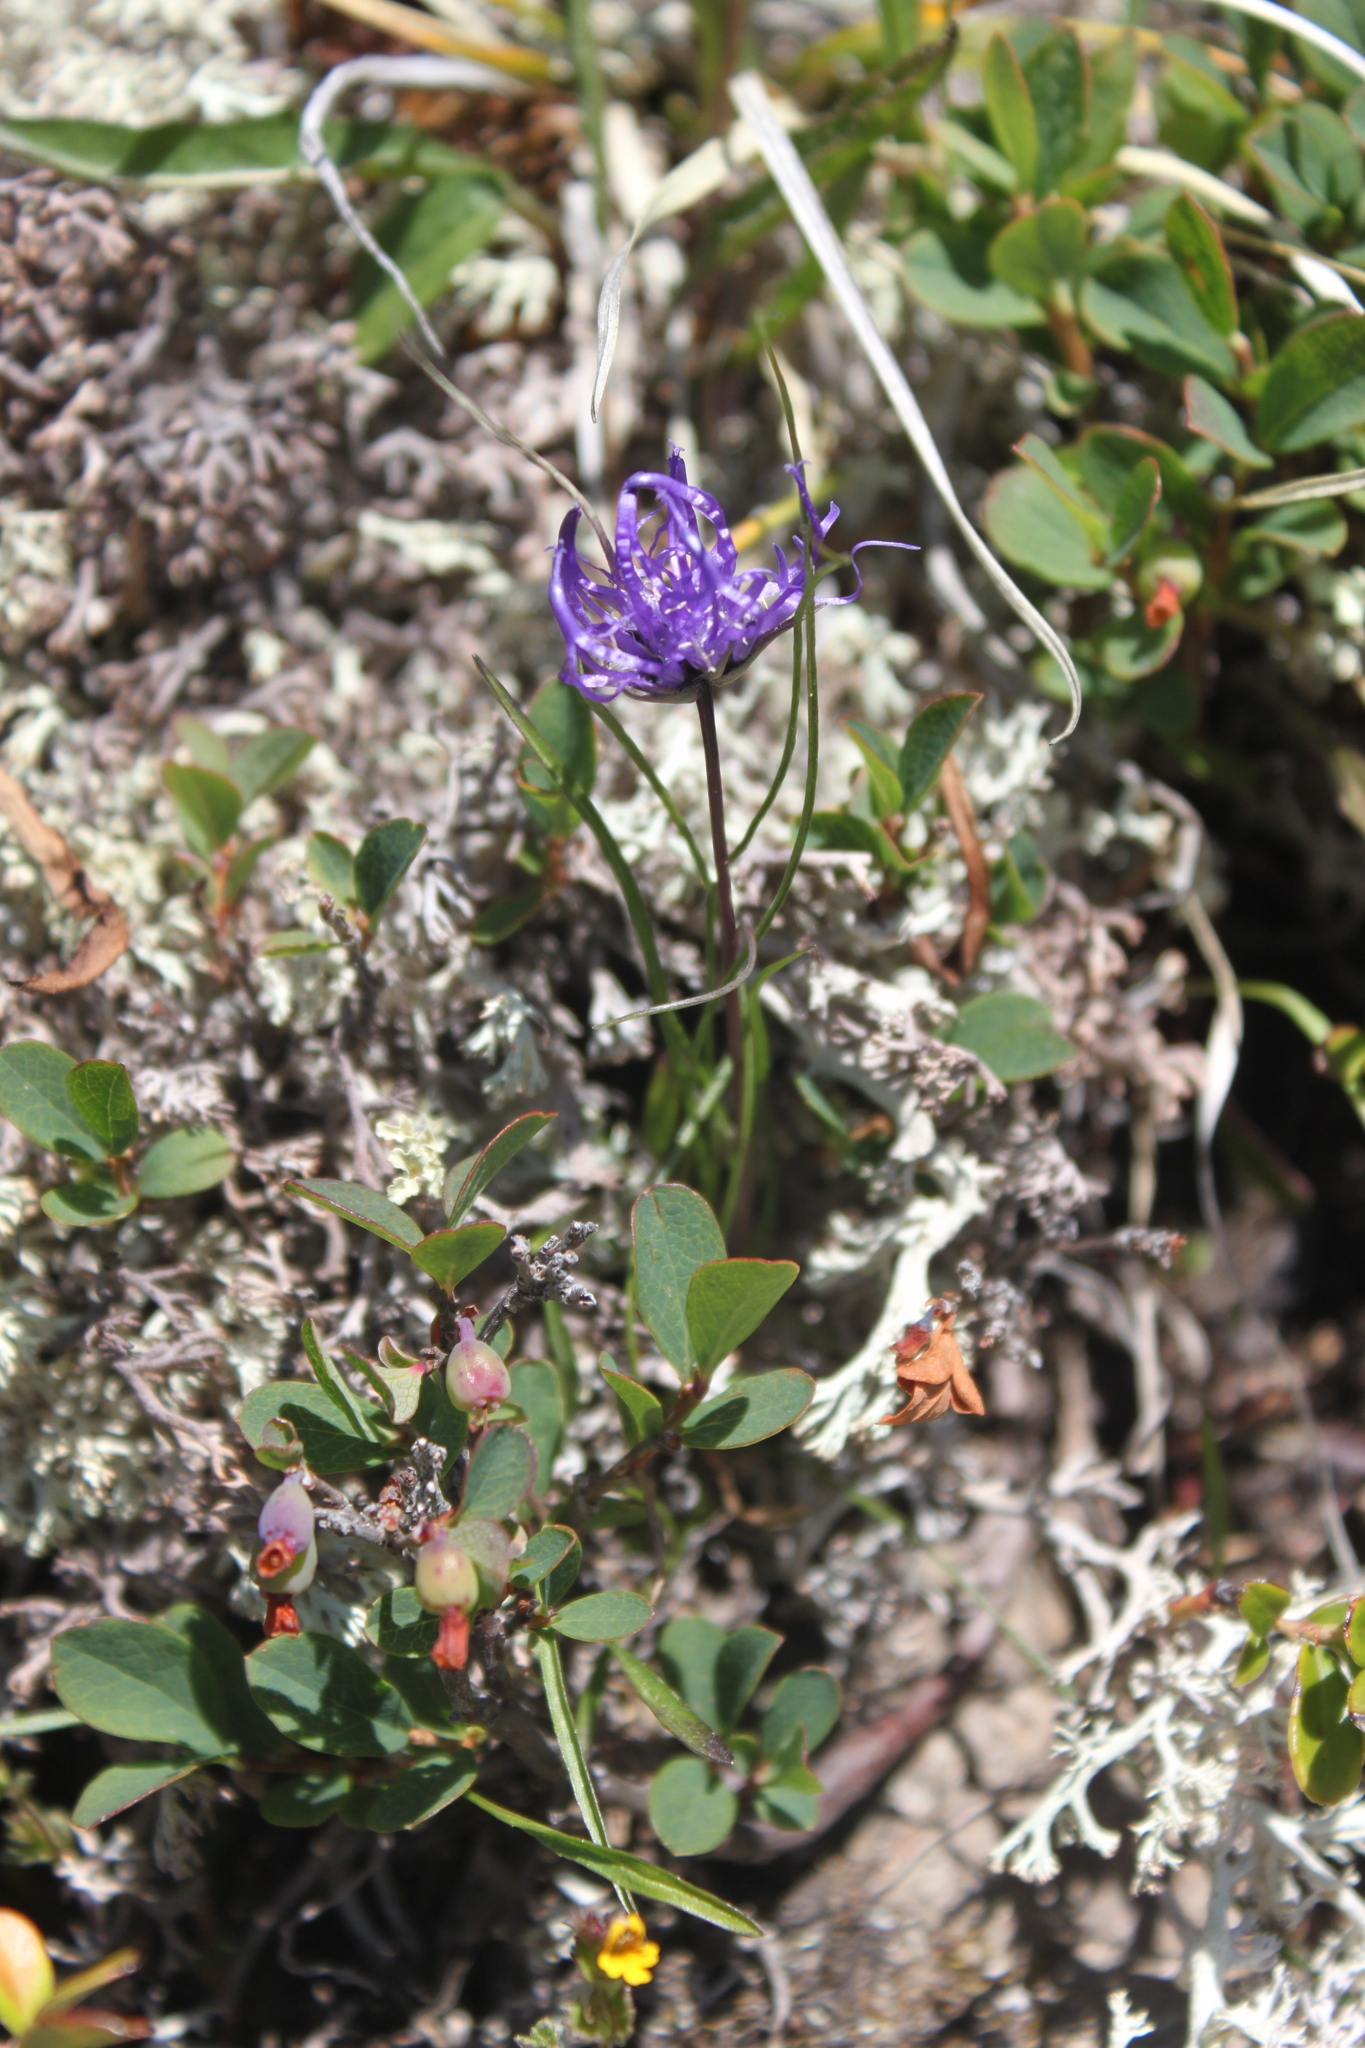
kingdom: Plantae
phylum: Tracheophyta
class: Magnoliopsida
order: Asterales
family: Campanulaceae
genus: Phyteuma
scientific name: Phyteuma hemisphaericum
